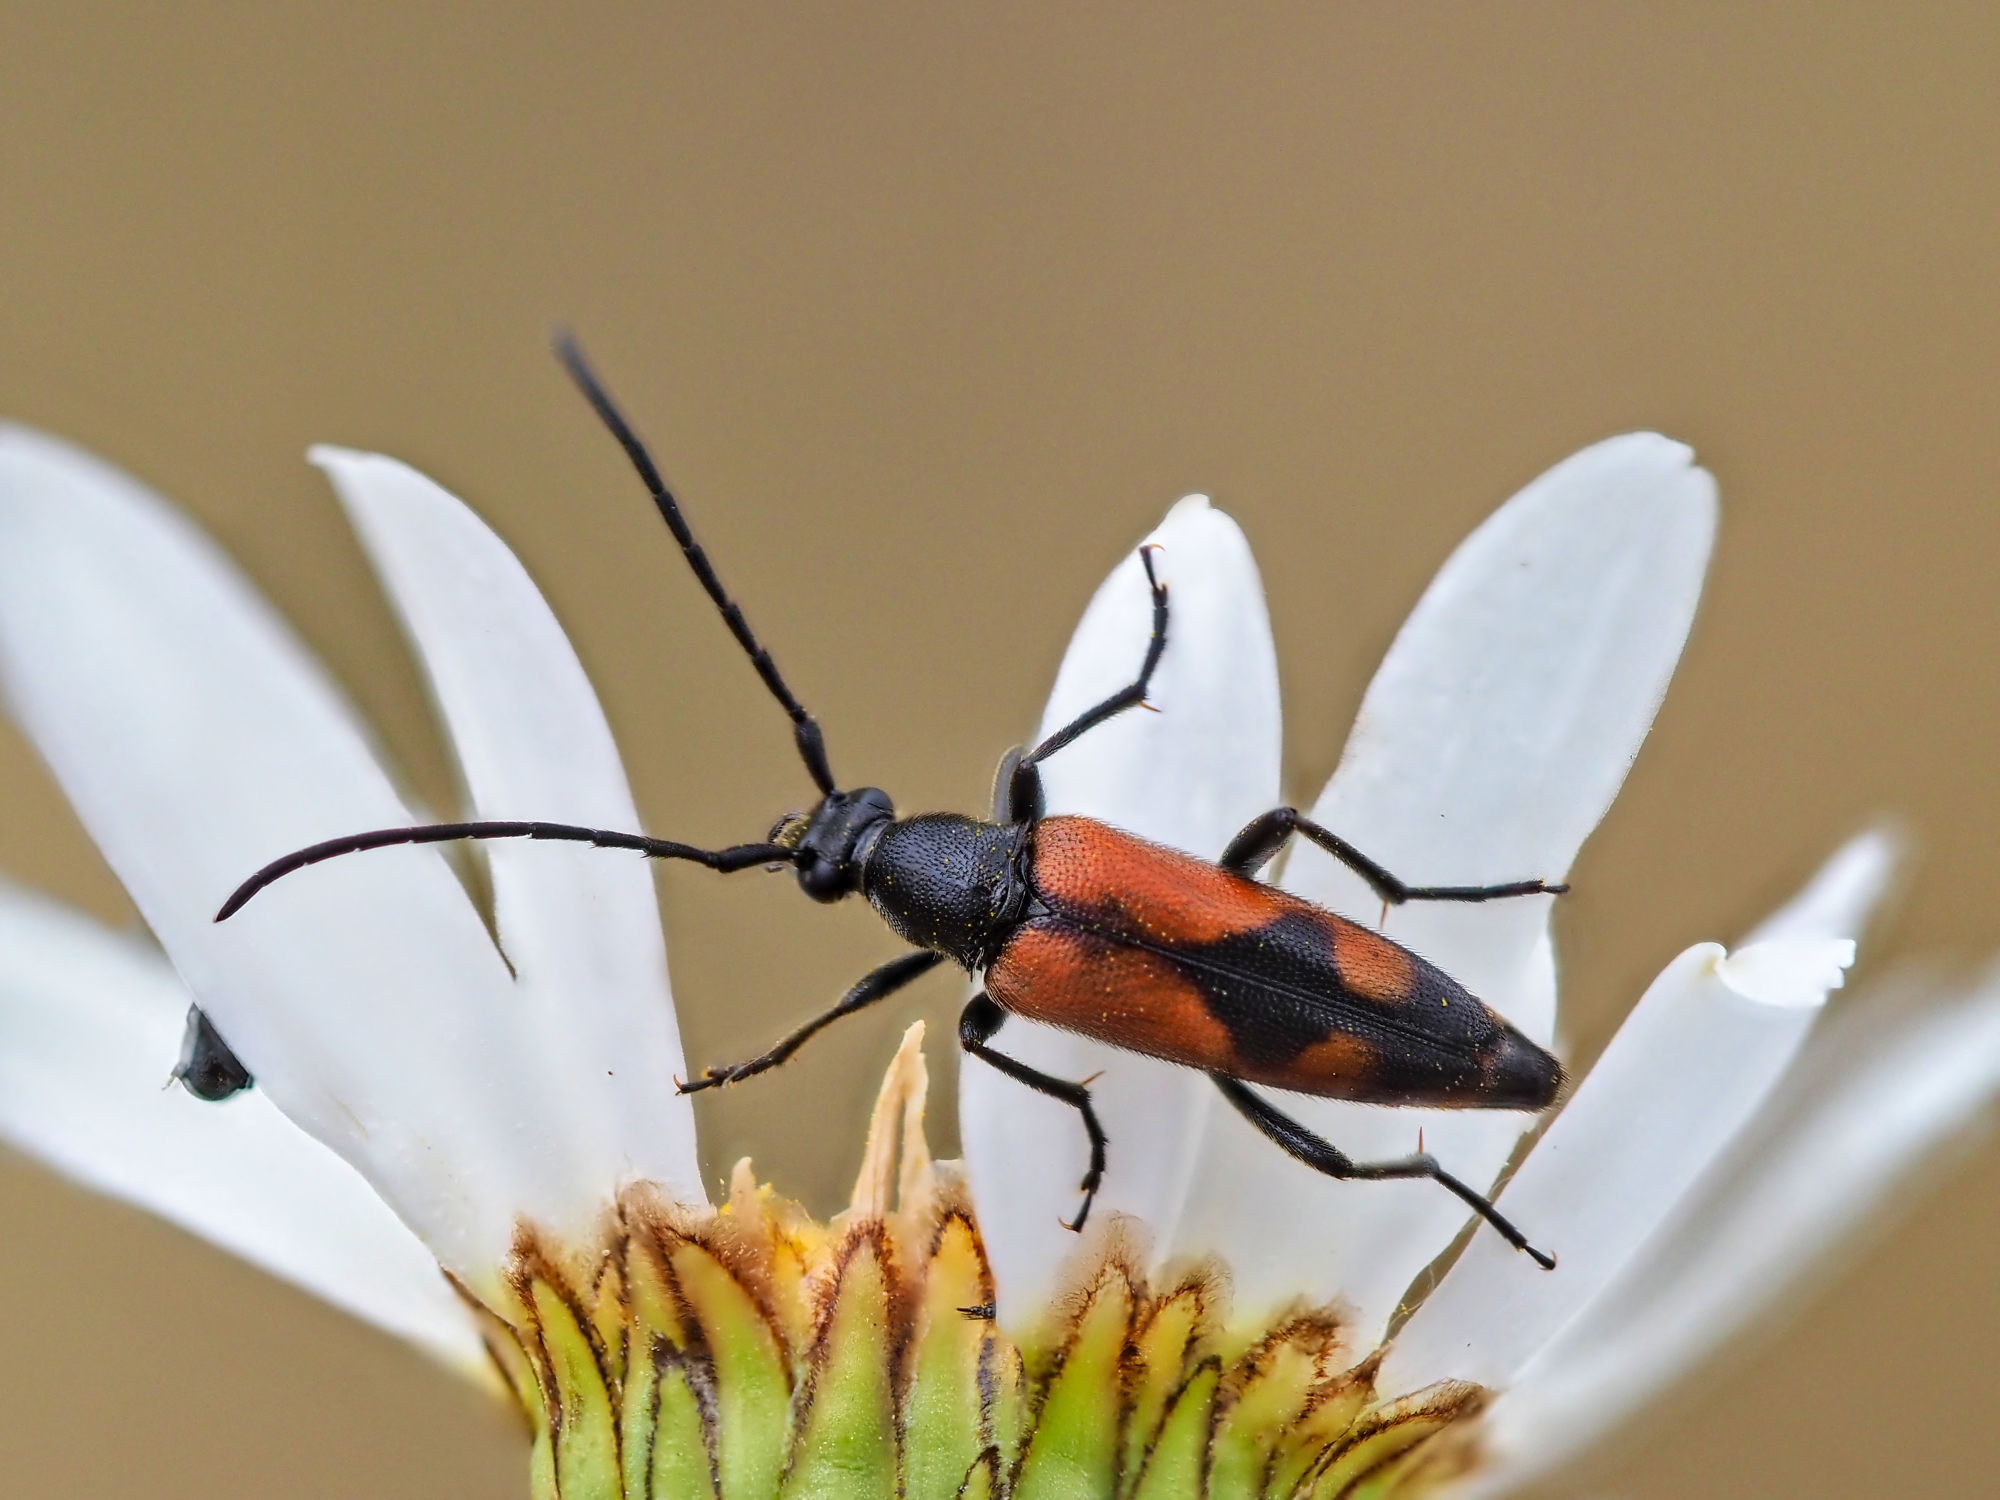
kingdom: Animalia
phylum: Arthropoda
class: Insecta
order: Coleoptera
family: Cerambycidae
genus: Stenurella
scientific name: Stenurella bifasciata
